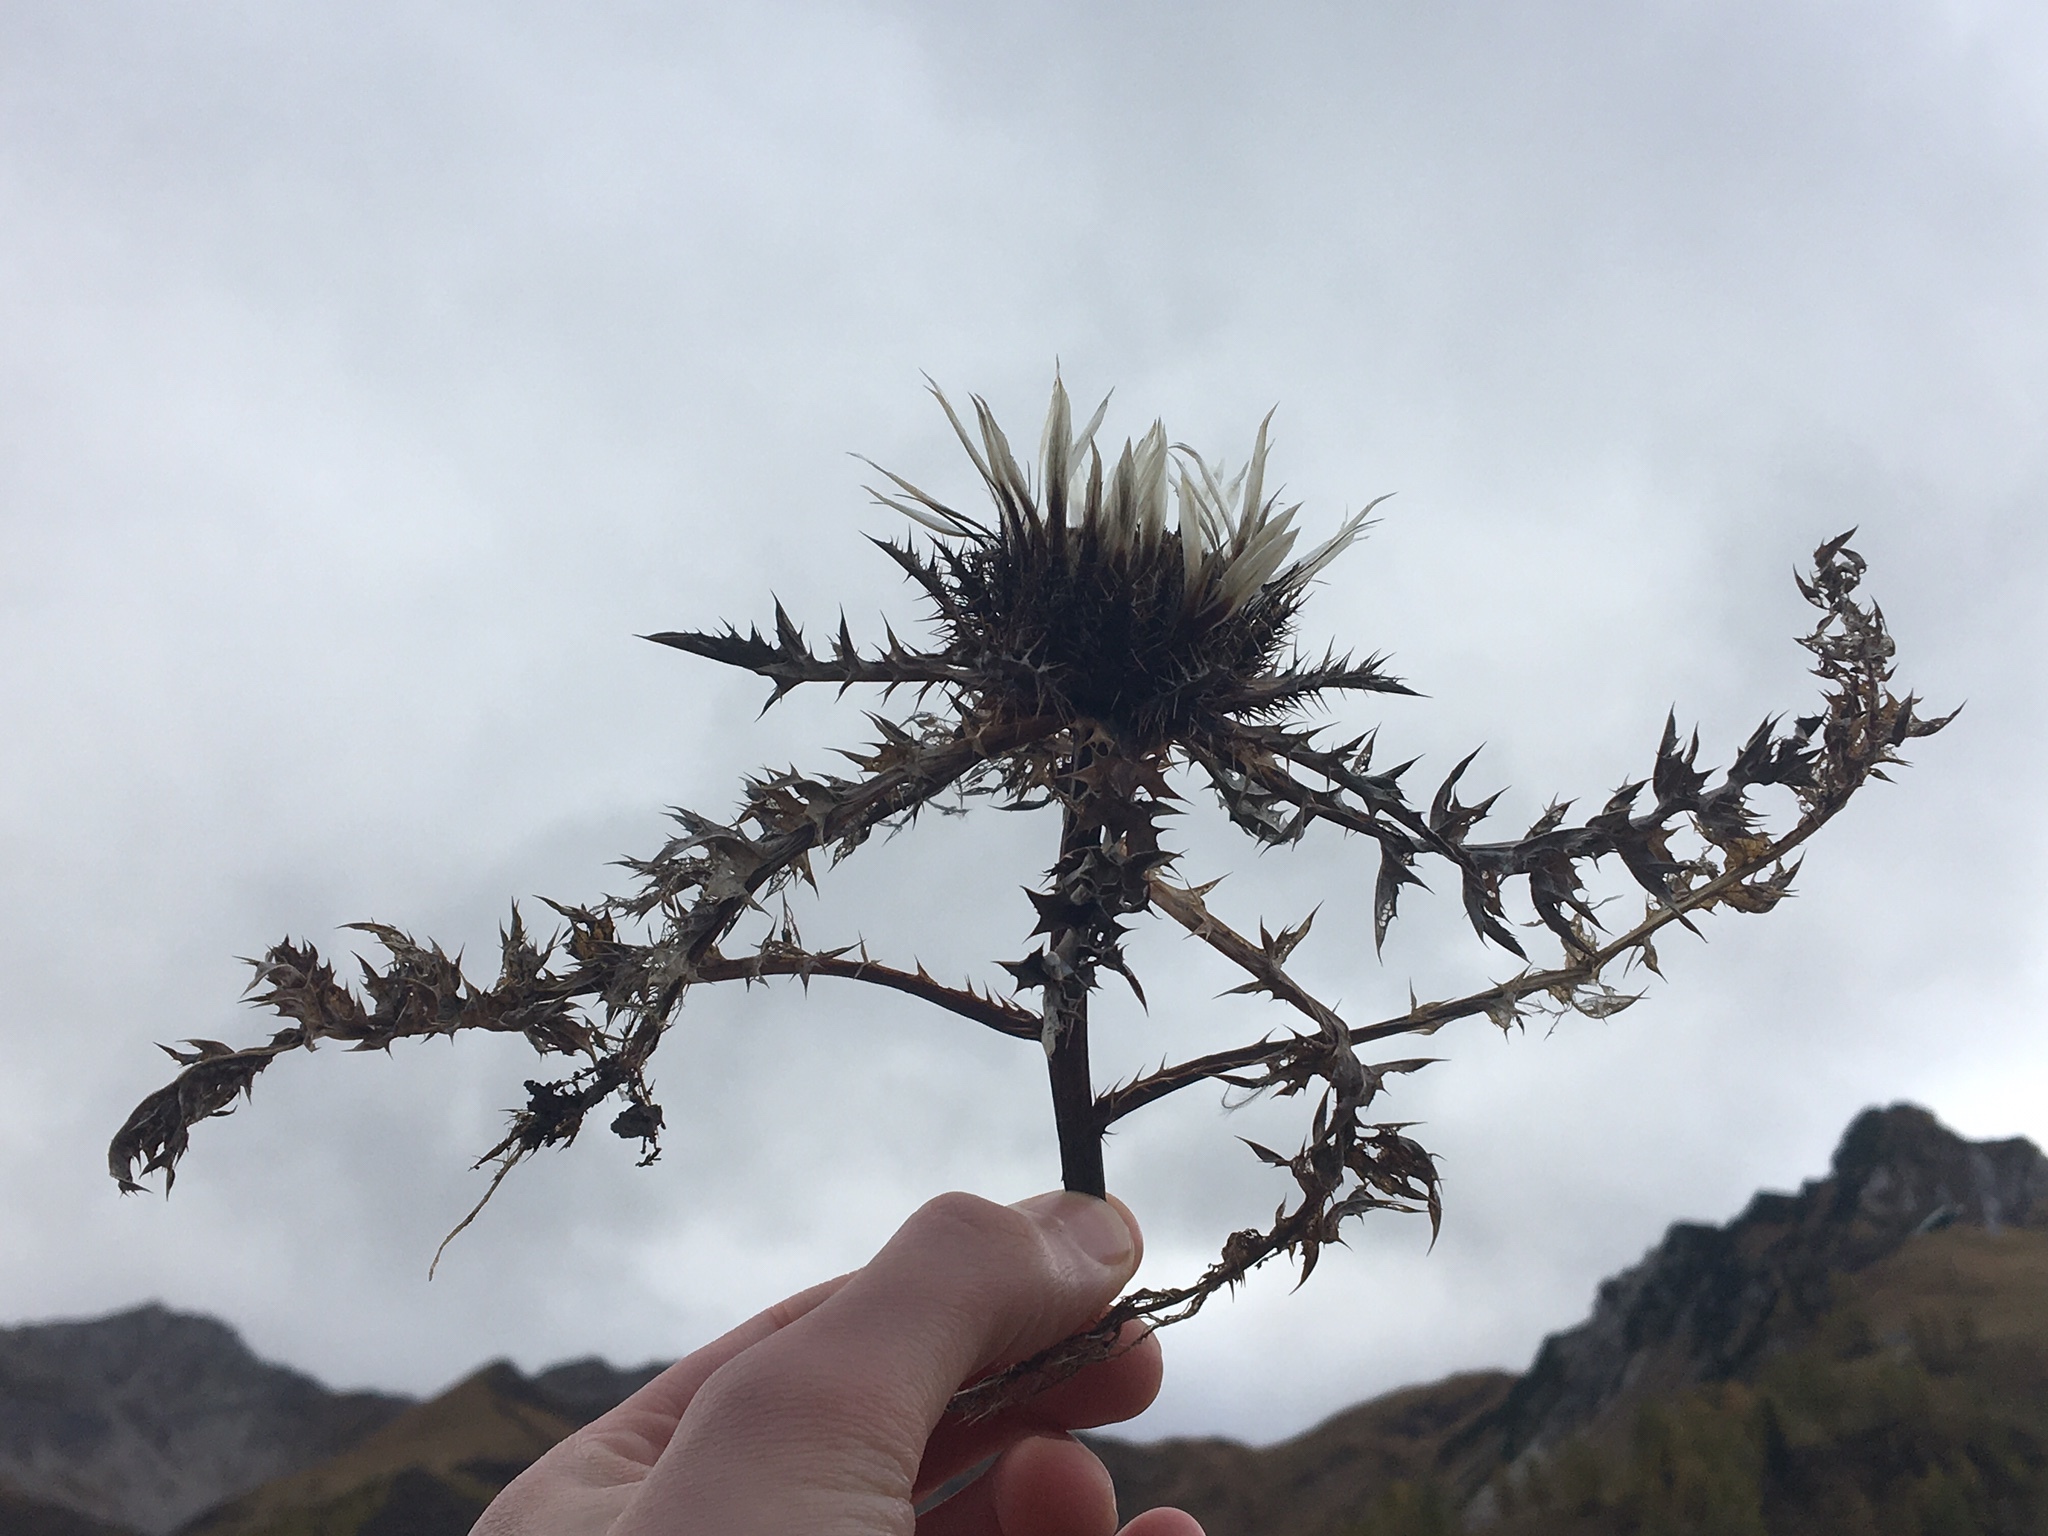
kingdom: Plantae
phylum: Tracheophyta
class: Magnoliopsida
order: Asterales
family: Asteraceae
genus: Carlina
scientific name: Carlina acaulis
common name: Stemless carline thistle
